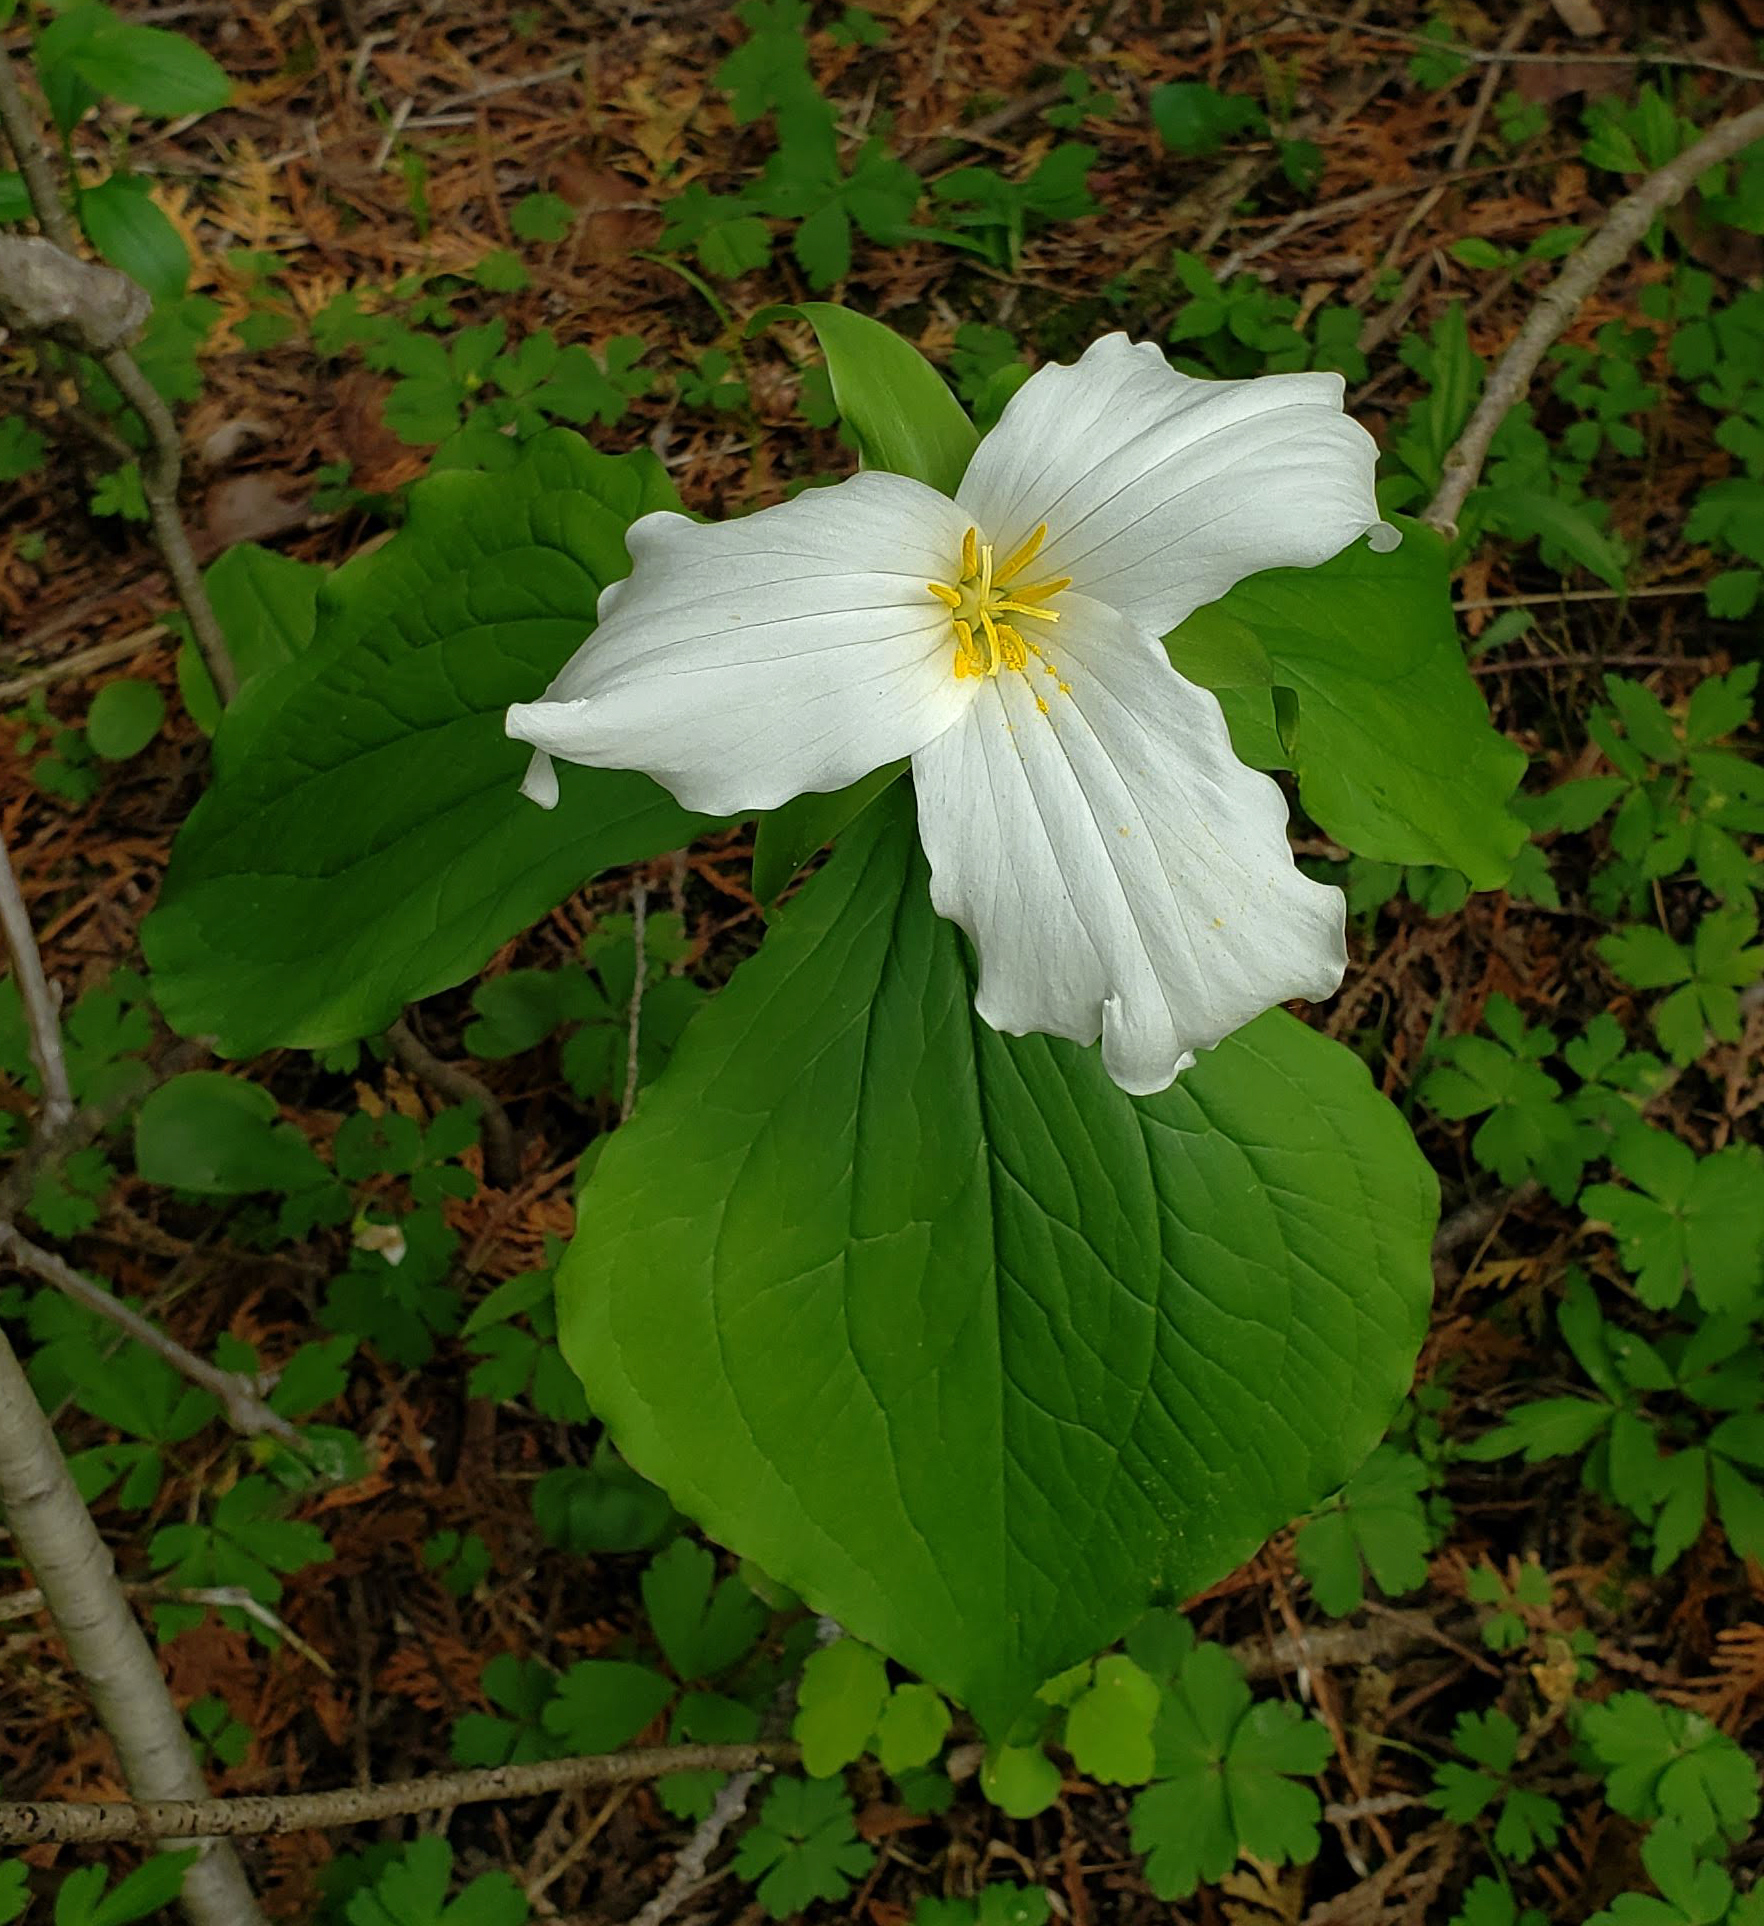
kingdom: Plantae
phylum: Tracheophyta
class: Liliopsida
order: Liliales
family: Melanthiaceae
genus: Trillium
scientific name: Trillium grandiflorum
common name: Great white trillium
